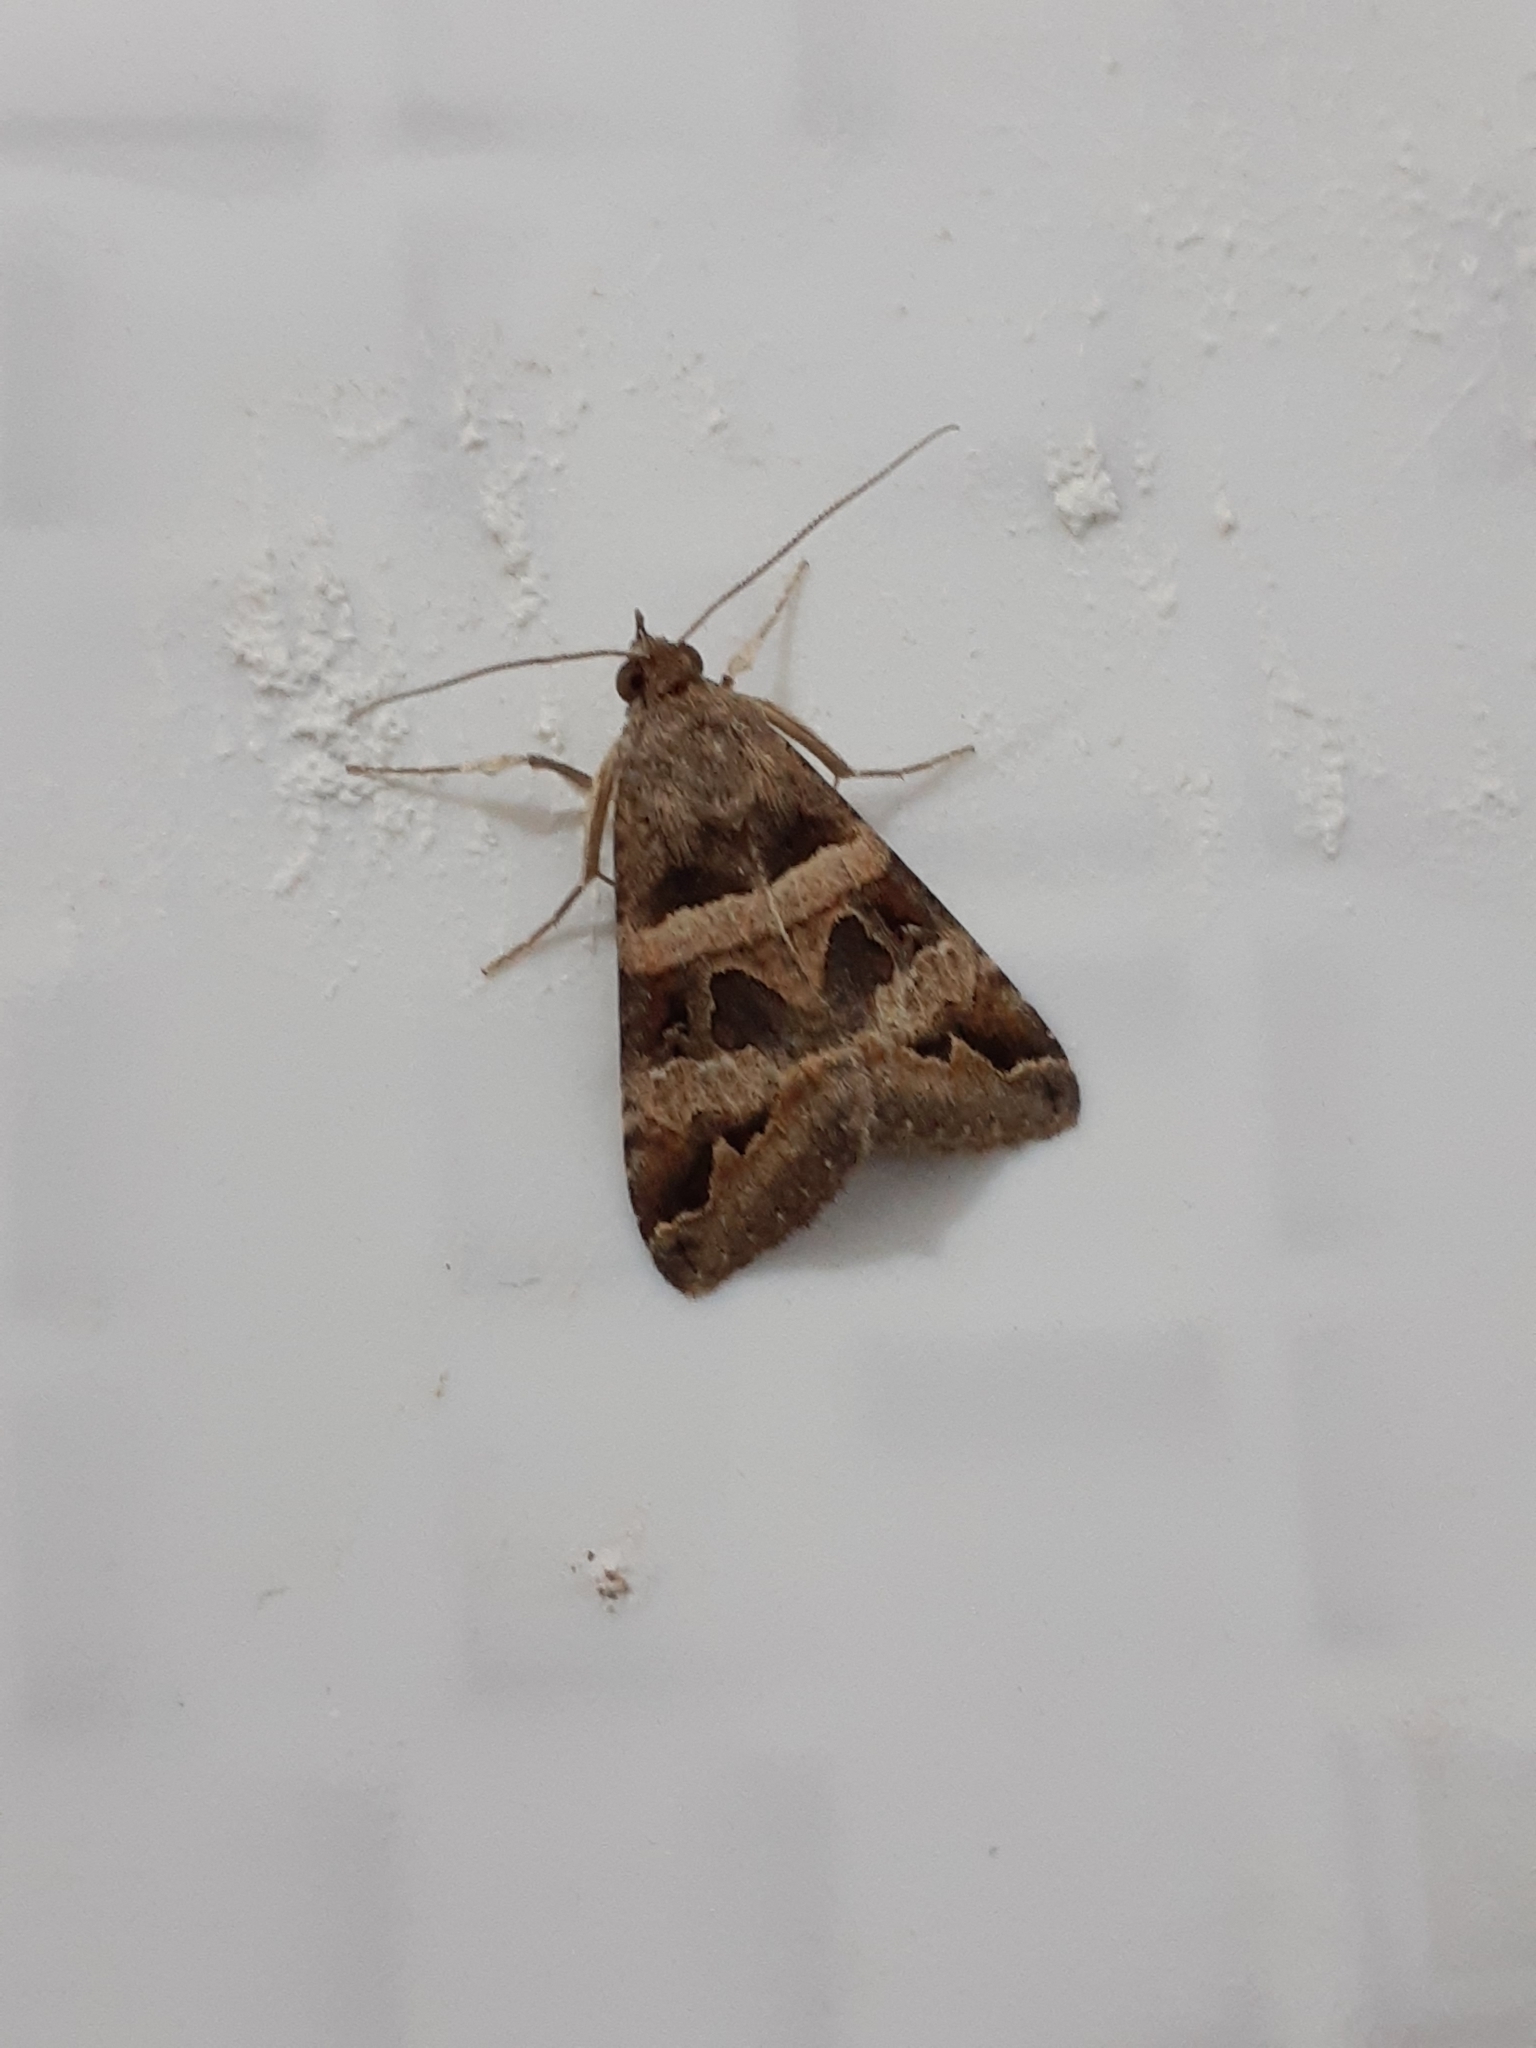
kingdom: Animalia
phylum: Arthropoda
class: Insecta
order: Lepidoptera
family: Erebidae
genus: Melipotis
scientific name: Melipotis trujillensis
